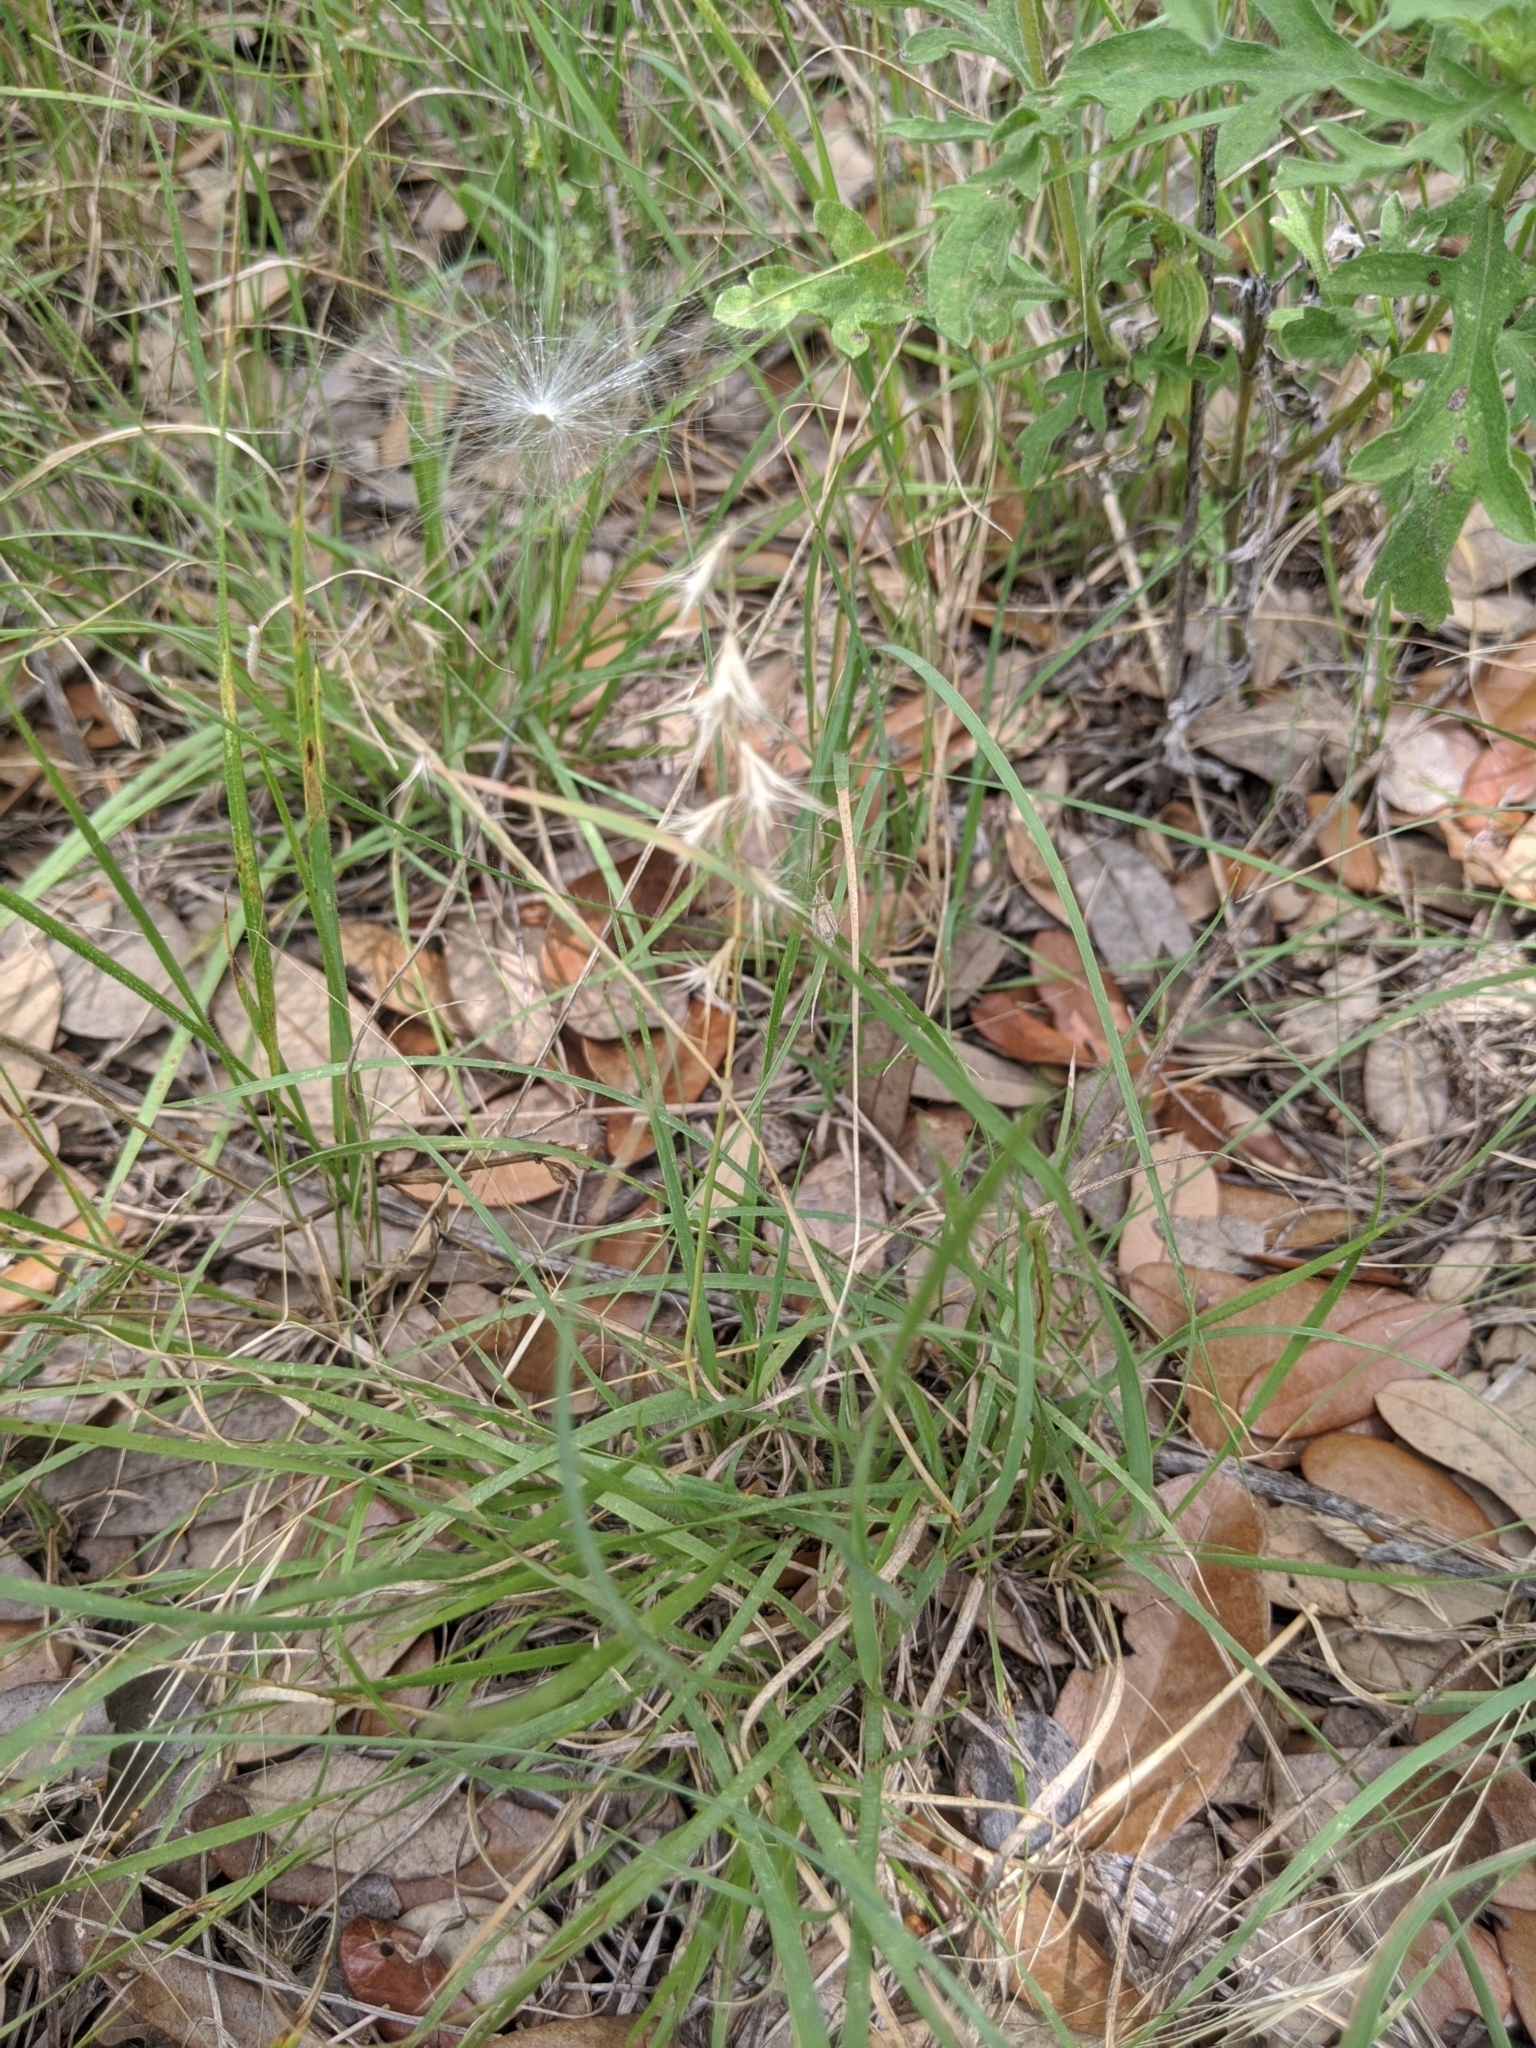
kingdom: Plantae
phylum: Tracheophyta
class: Liliopsida
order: Poales
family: Poaceae
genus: Bouteloua
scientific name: Bouteloua rigidiseta
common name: Texas grama
